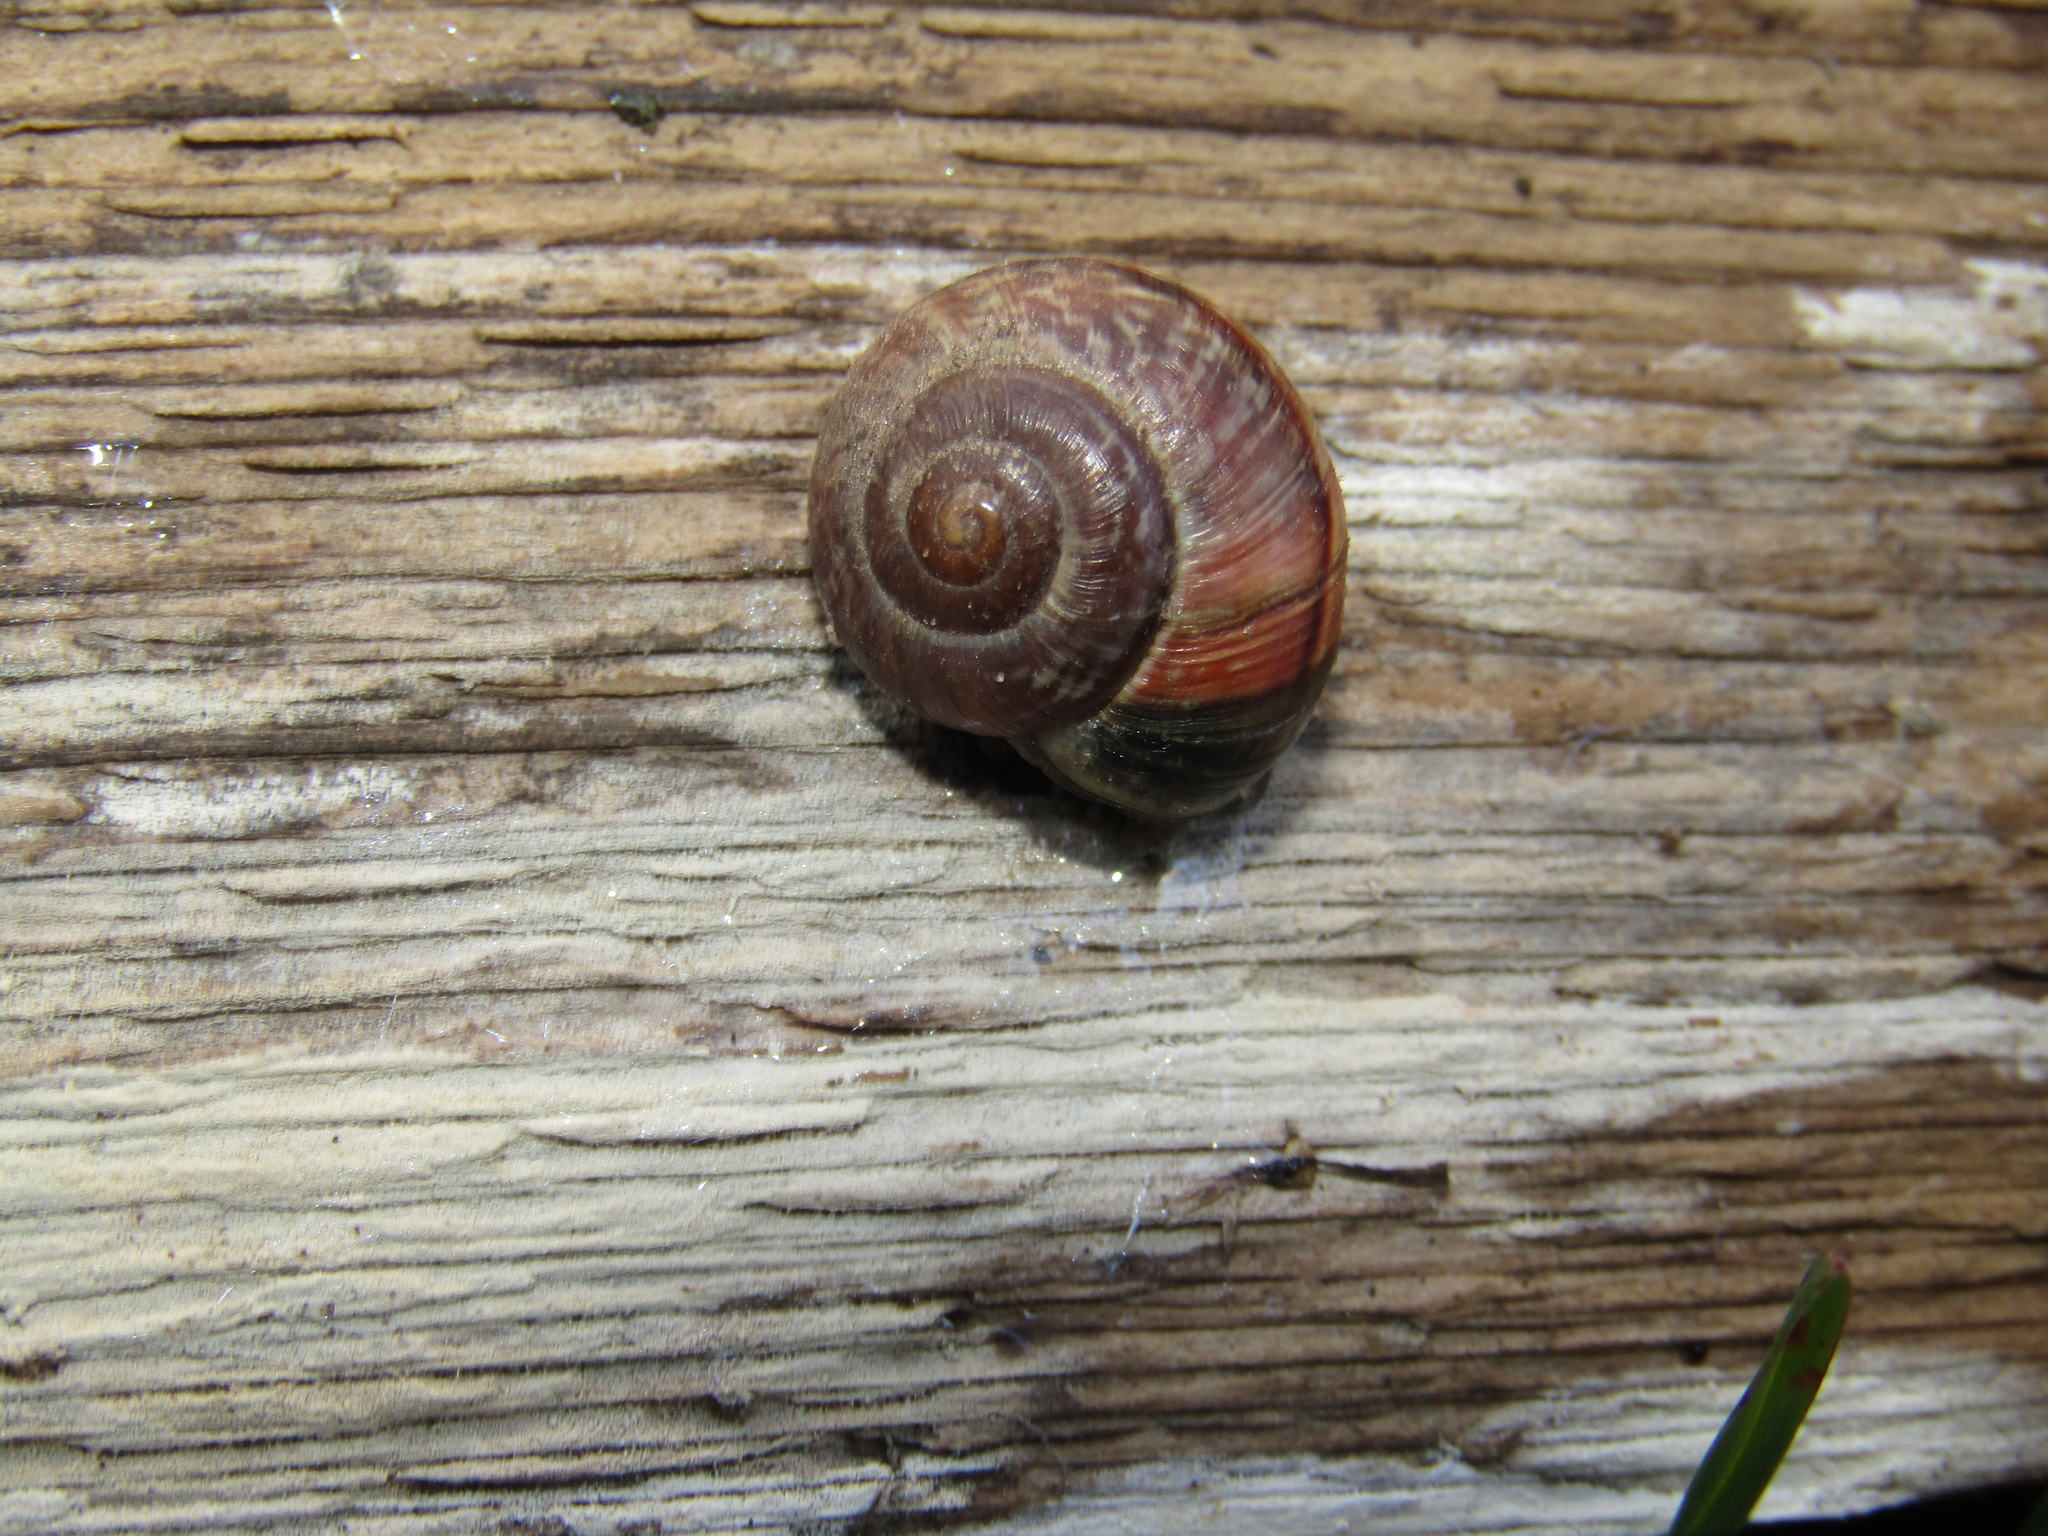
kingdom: Animalia
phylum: Mollusca
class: Gastropoda
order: Stylommatophora
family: Helicidae
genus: Arianta
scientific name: Arianta arbustorum
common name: Copse snail
